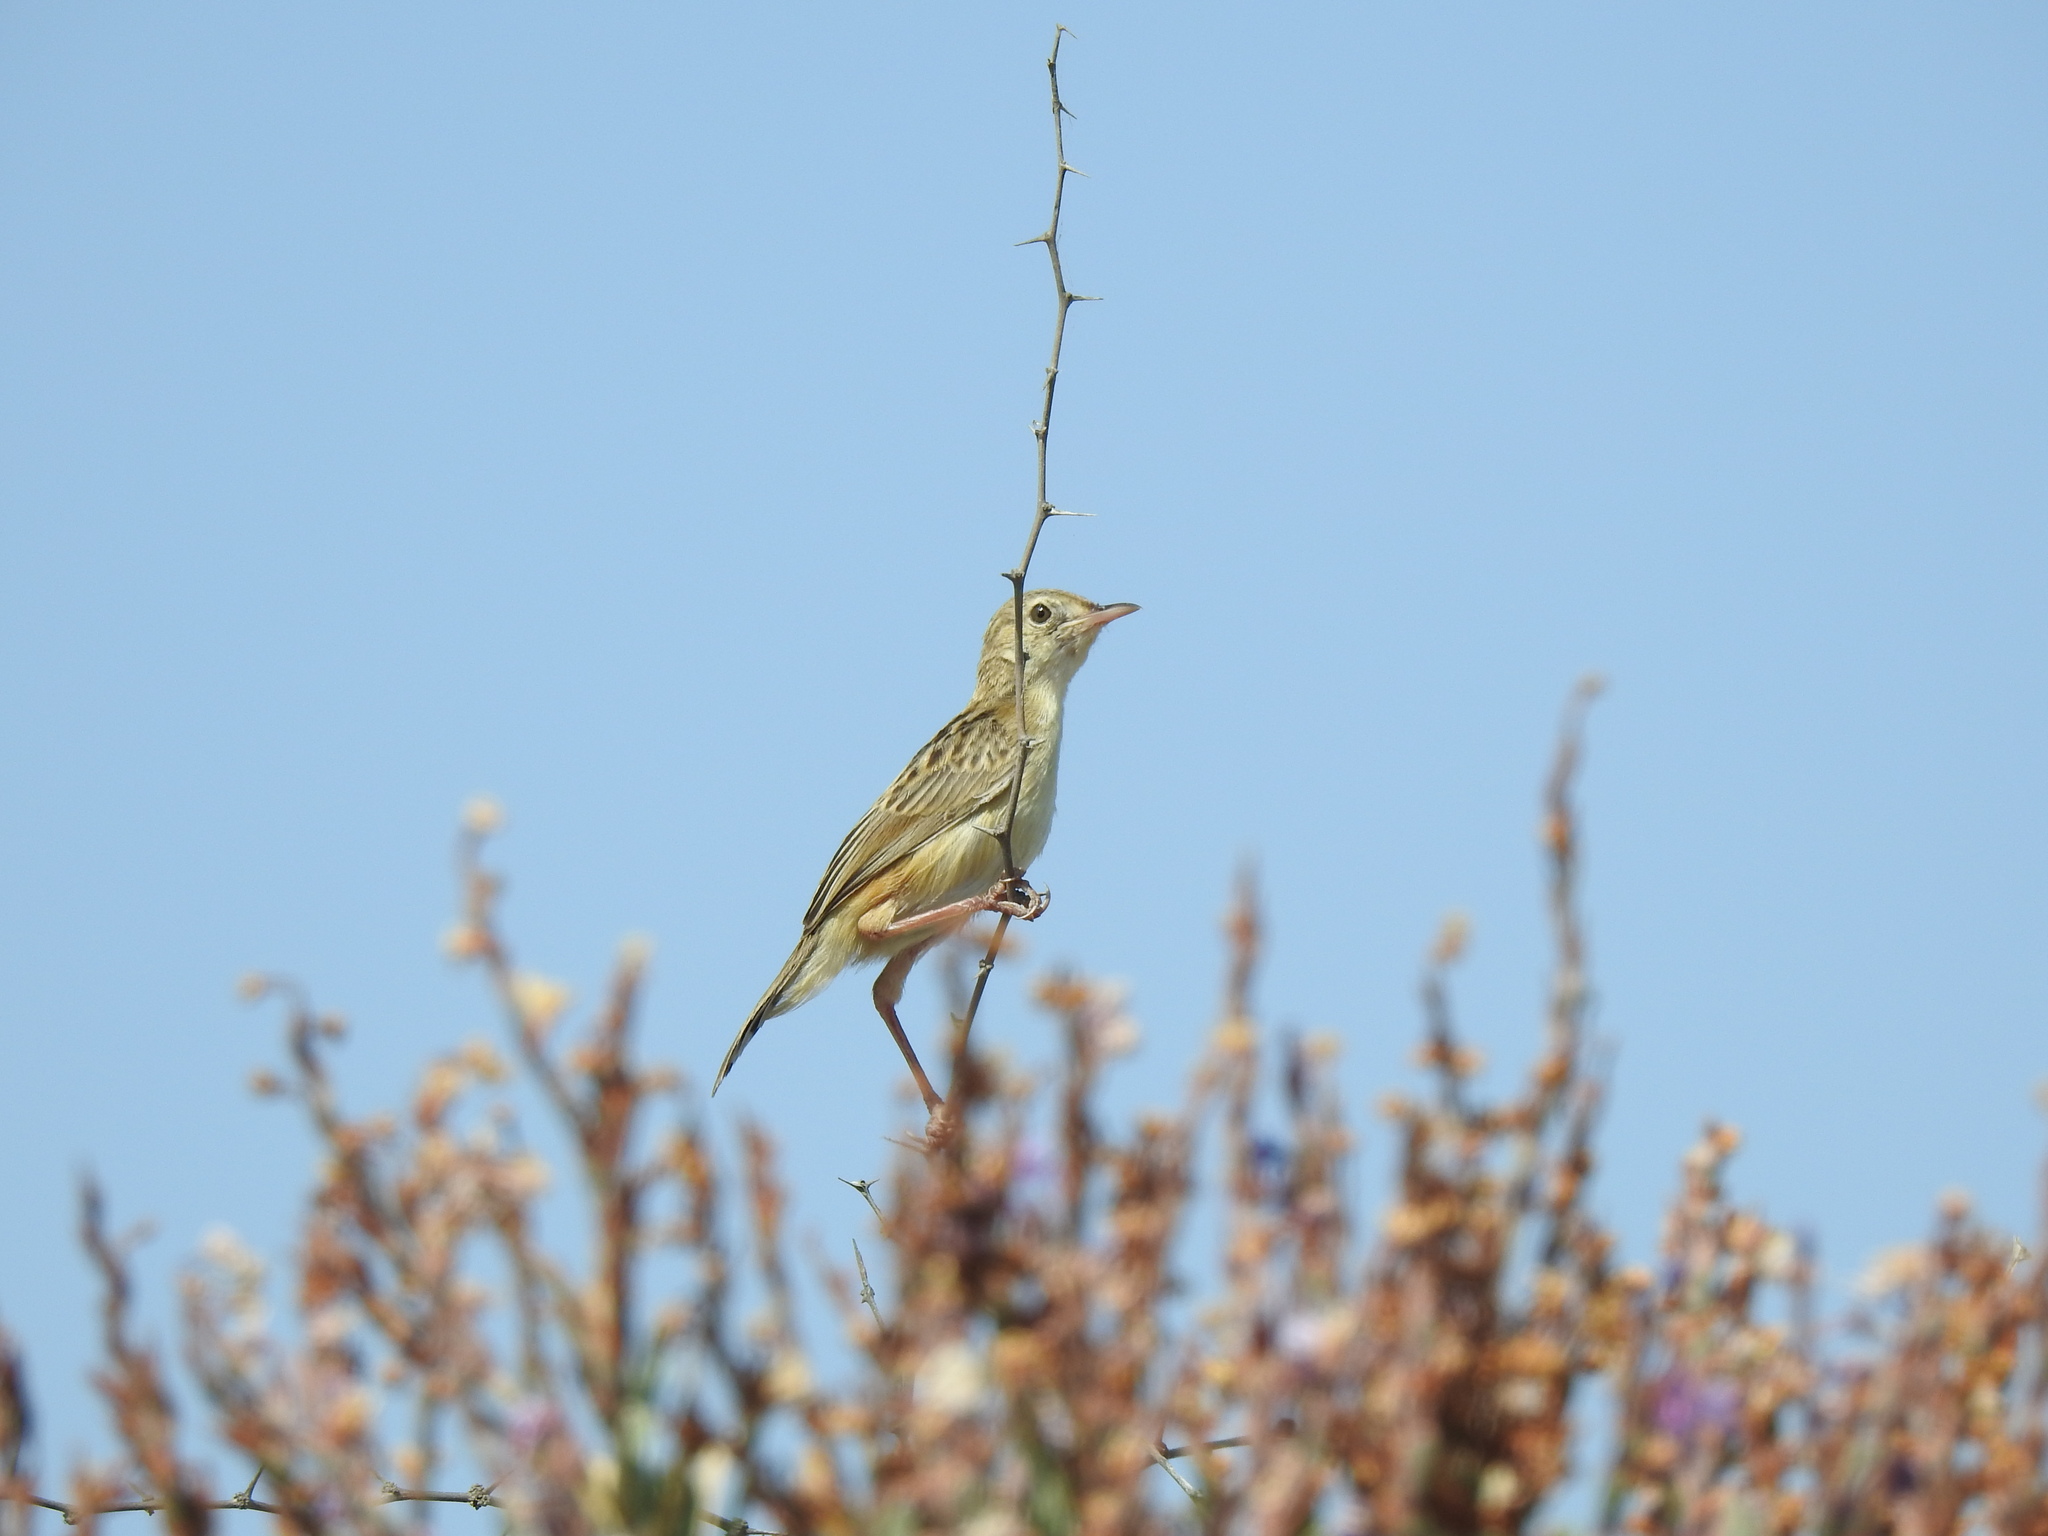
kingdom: Animalia
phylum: Chordata
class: Aves
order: Passeriformes
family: Cisticolidae
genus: Cisticola
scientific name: Cisticola juncidis
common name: Zitting cisticola
